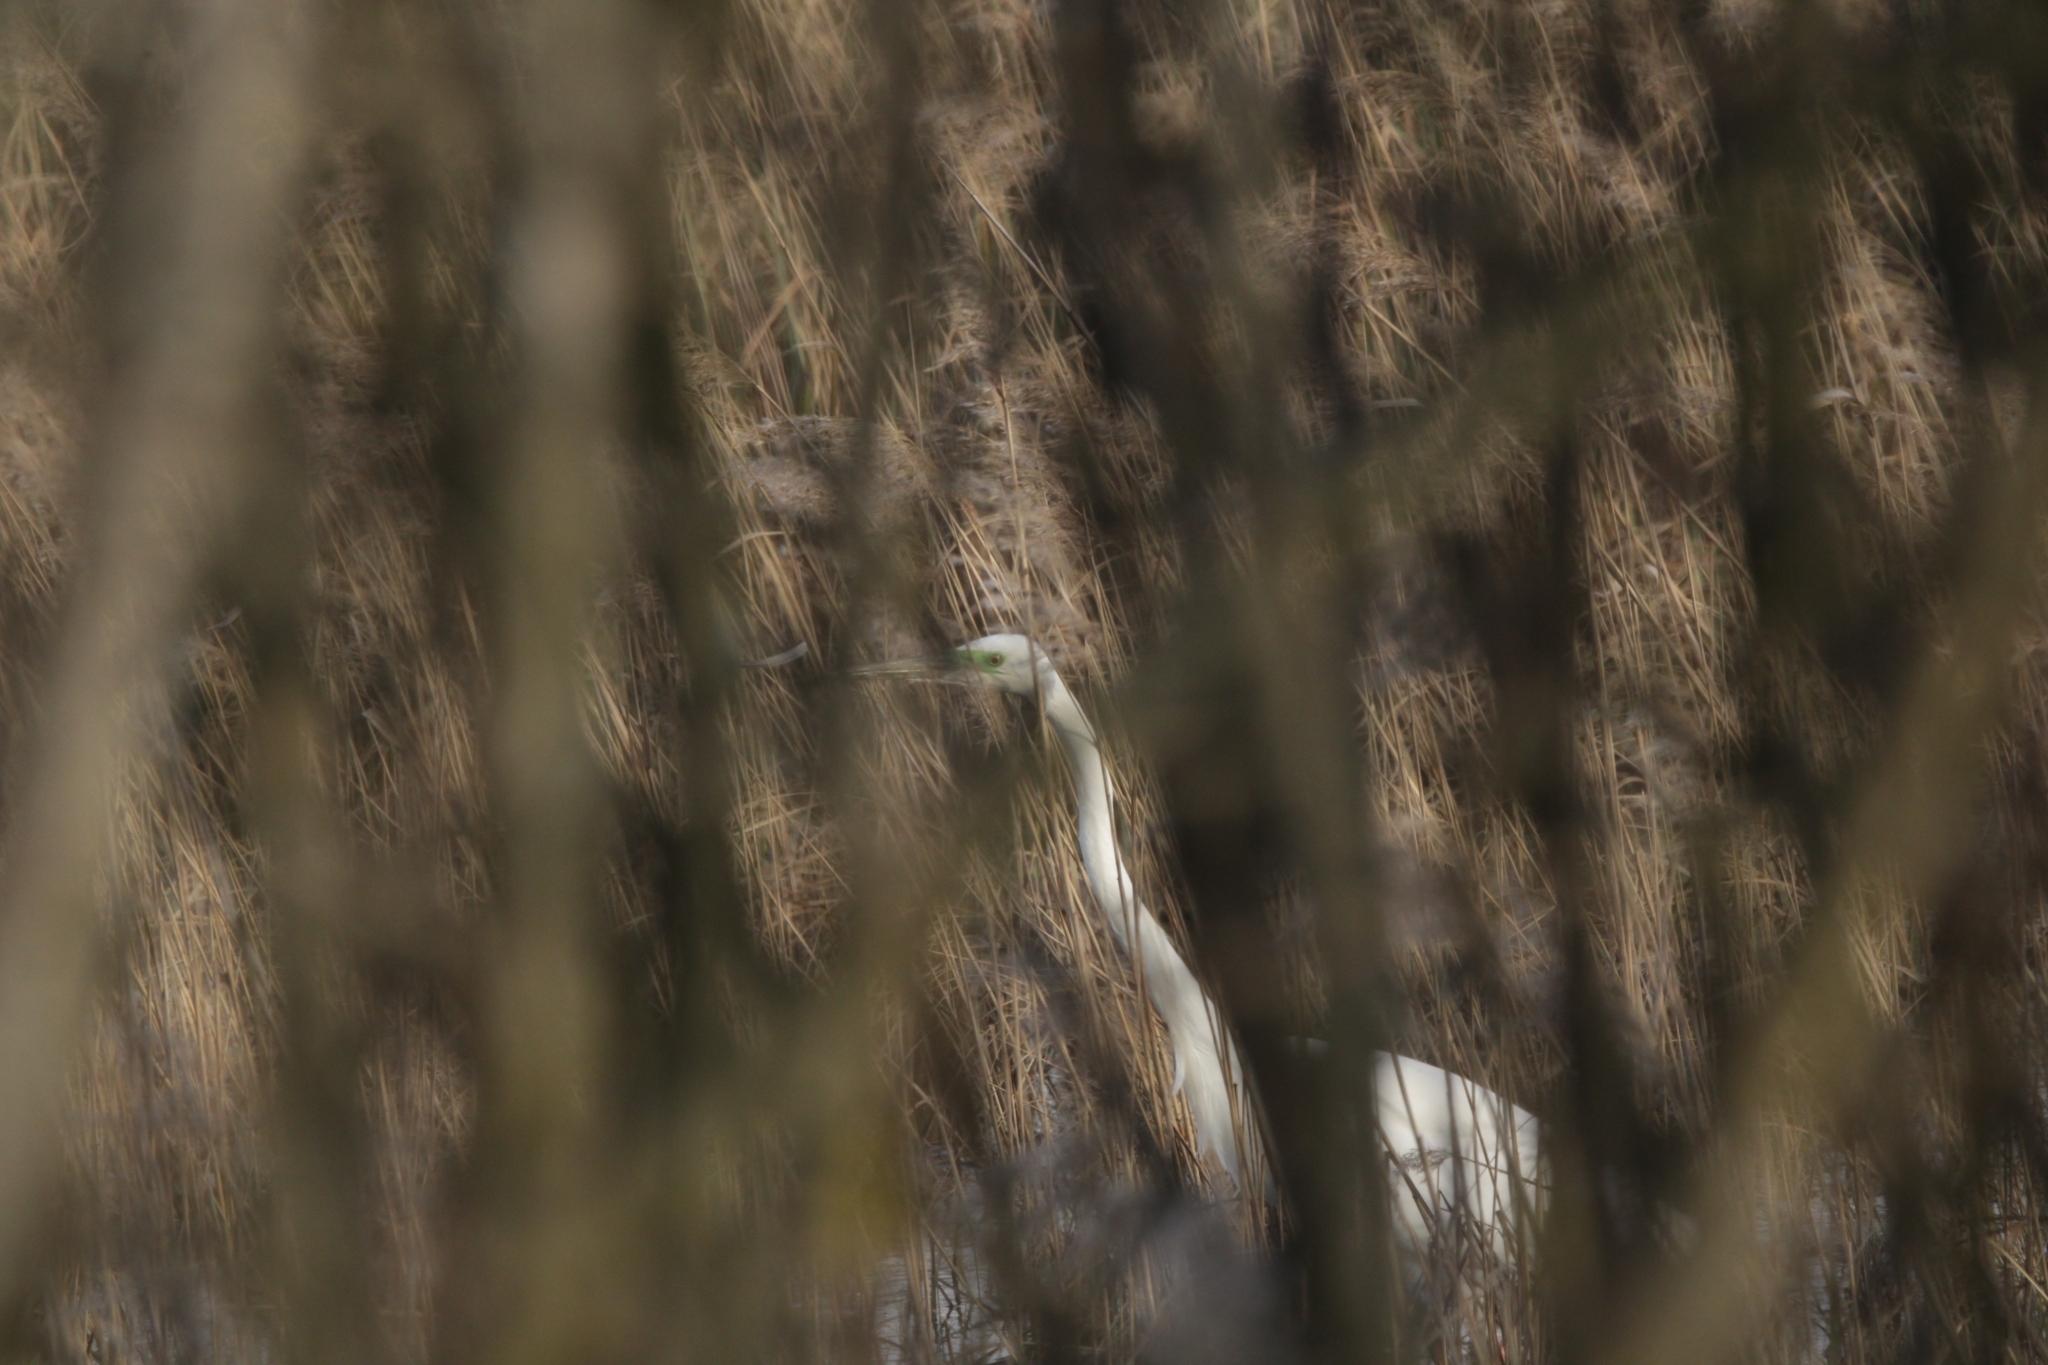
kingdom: Animalia
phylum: Chordata
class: Aves
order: Pelecaniformes
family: Ardeidae
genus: Ardea
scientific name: Ardea alba
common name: Great egret
